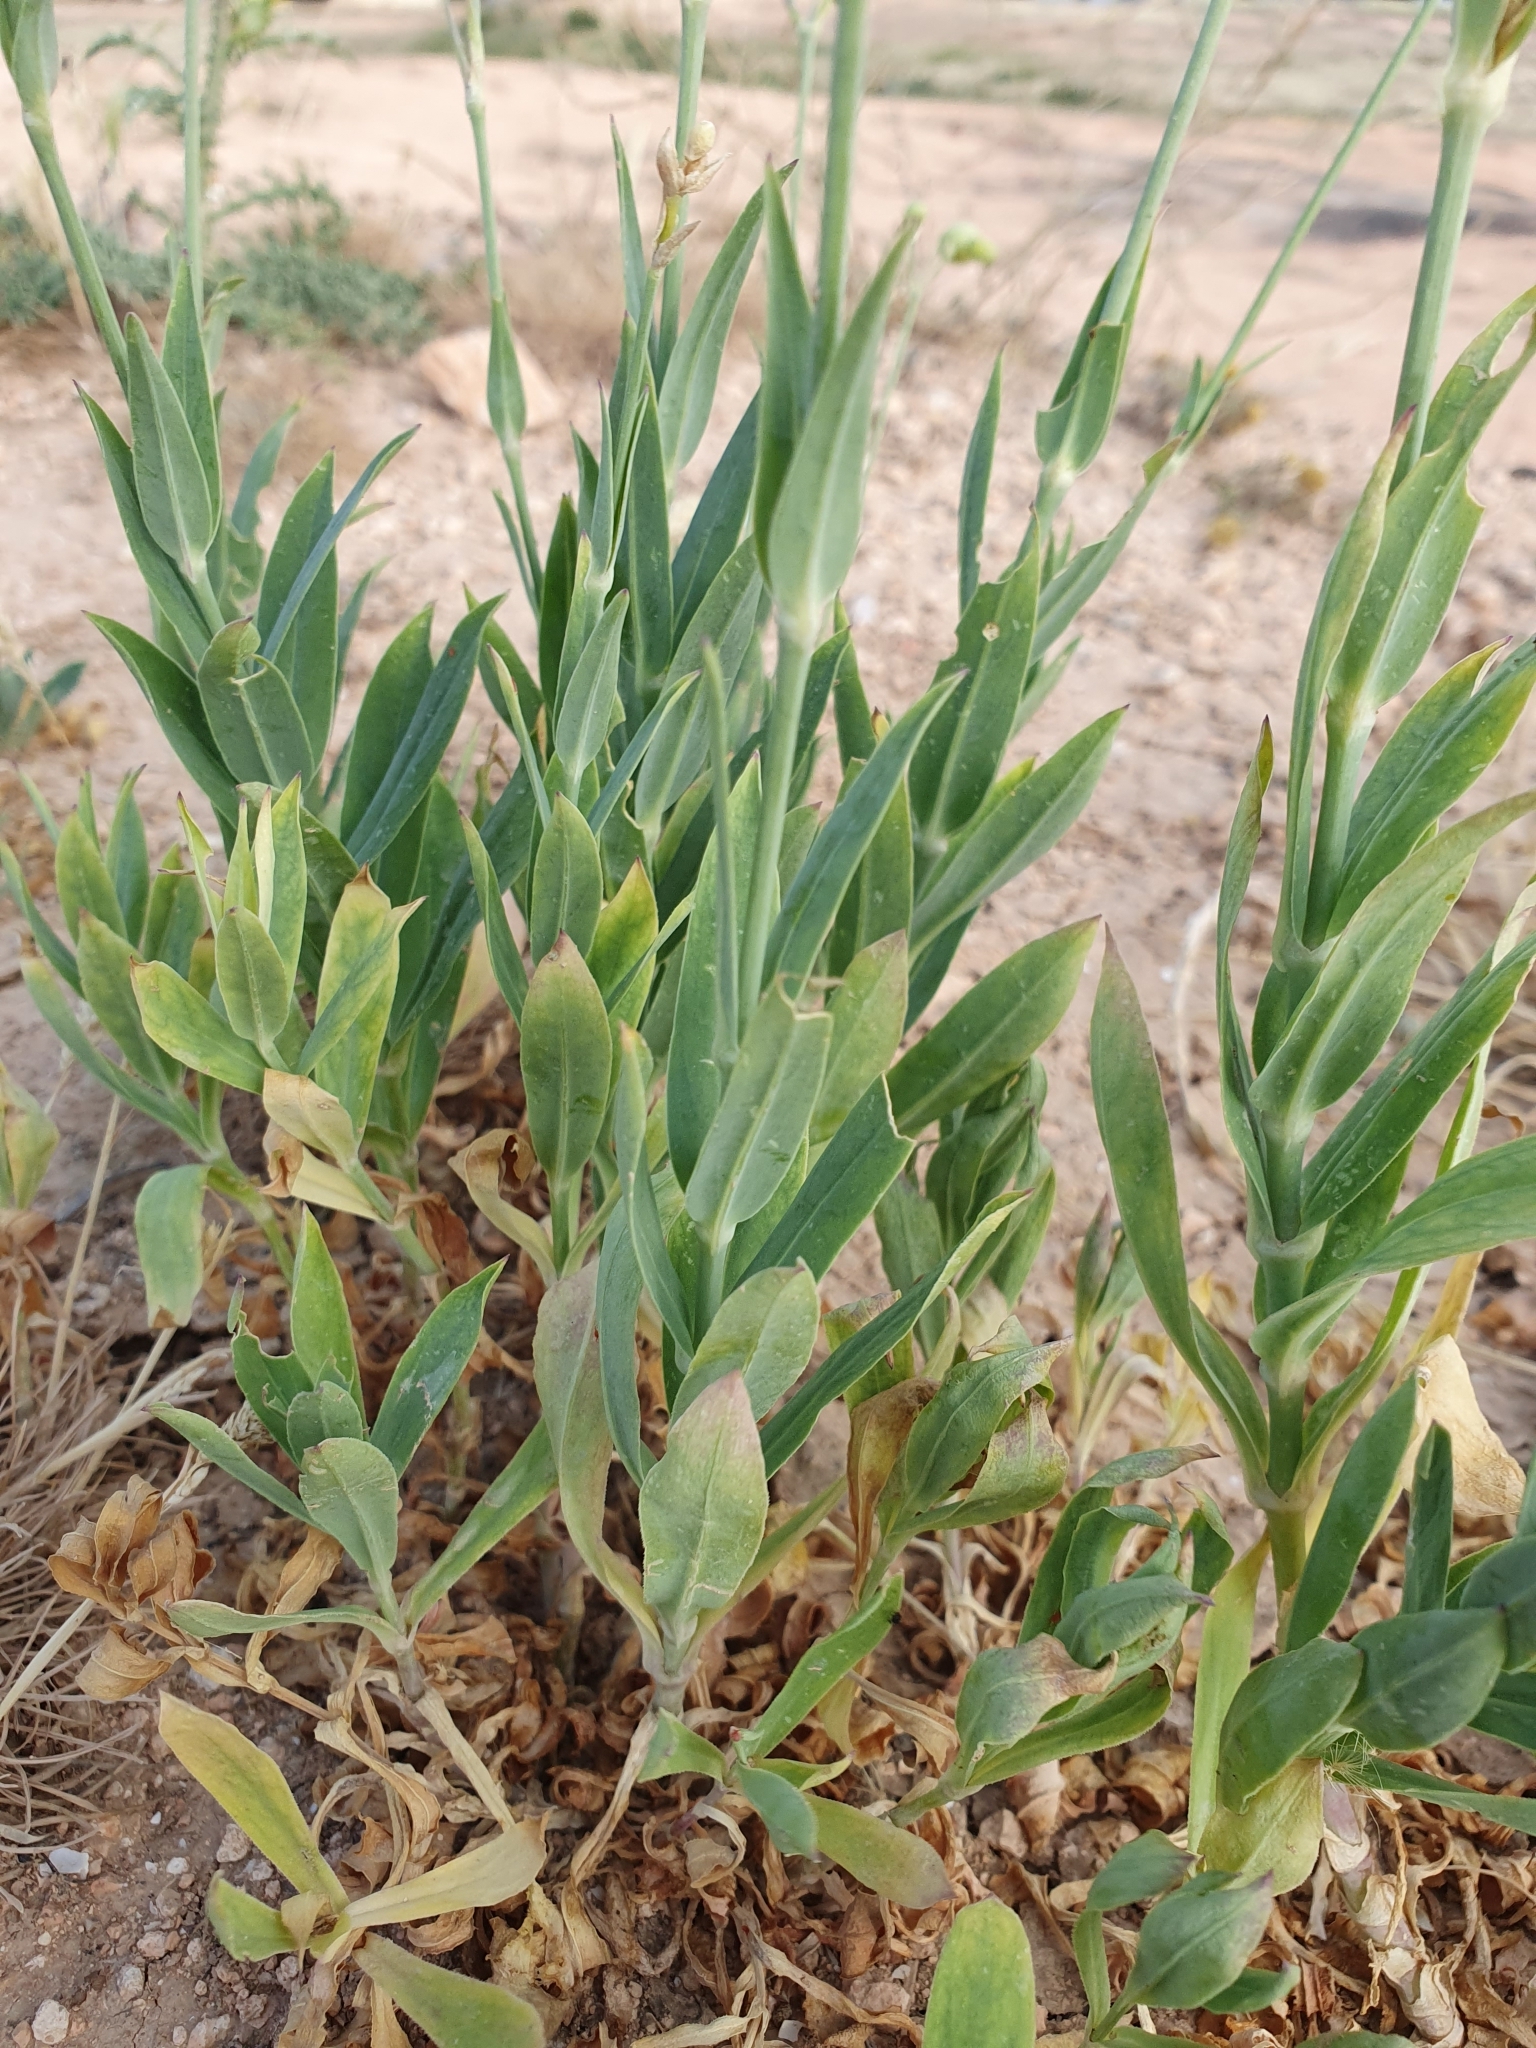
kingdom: Plantae
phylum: Tracheophyta
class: Magnoliopsida
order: Caryophyllales
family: Caryophyllaceae
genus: Silene
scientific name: Silene vulgaris
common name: Bladder campion
